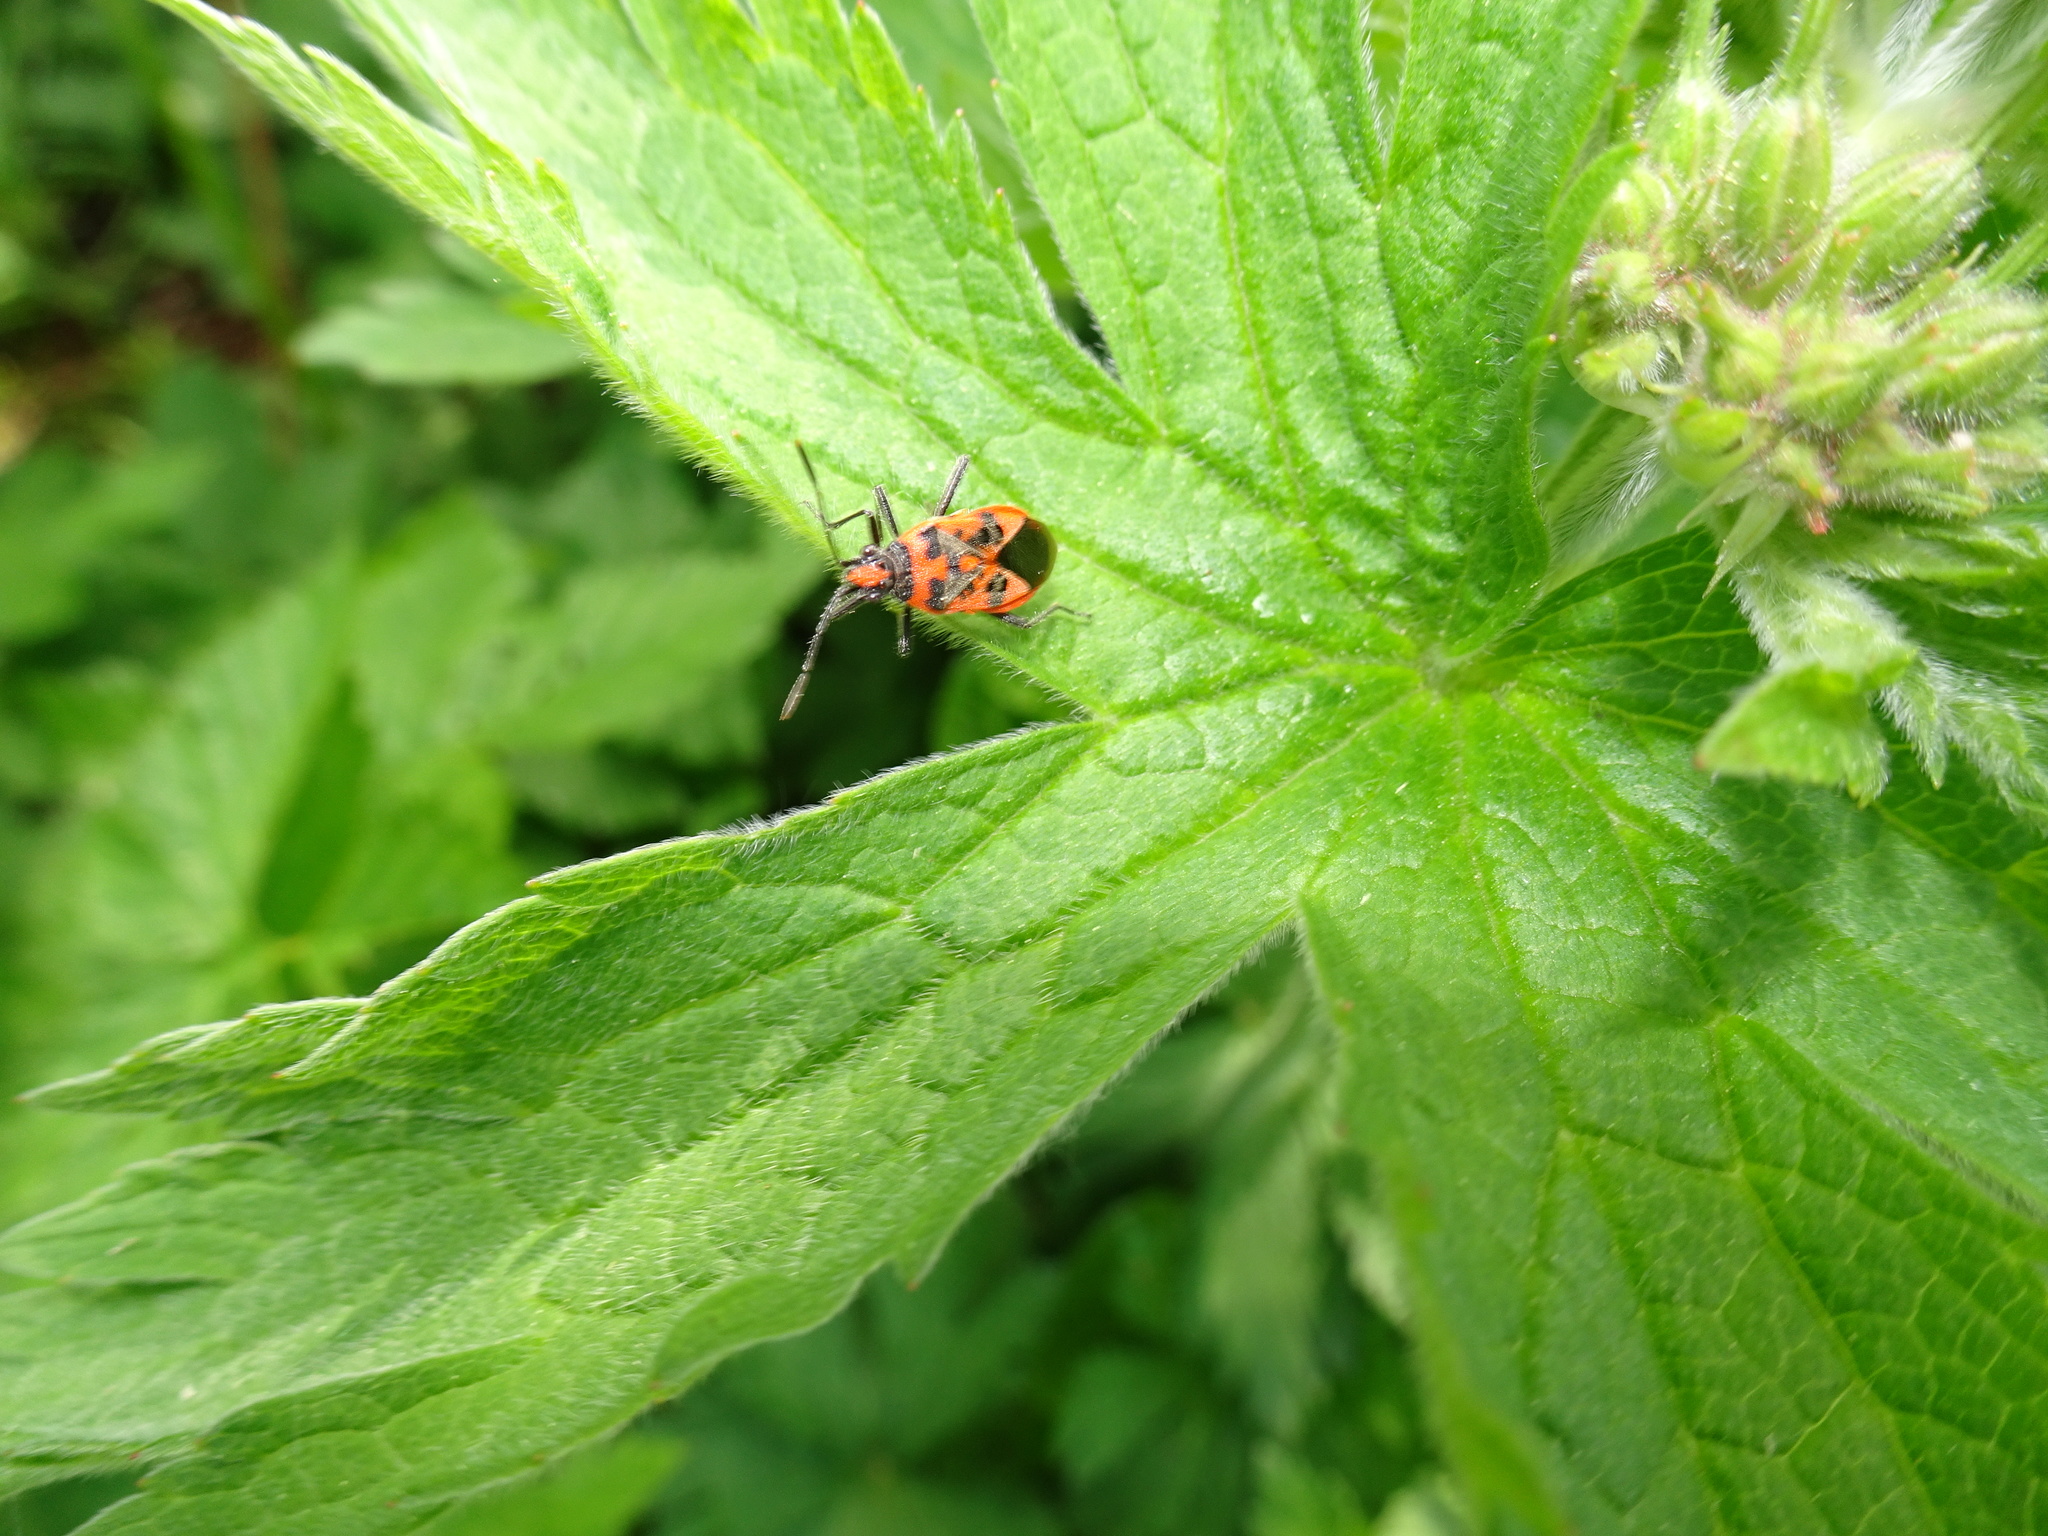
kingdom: Animalia
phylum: Arthropoda
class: Insecta
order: Hemiptera
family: Rhopalidae
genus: Corizus
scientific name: Corizus hyoscyami
